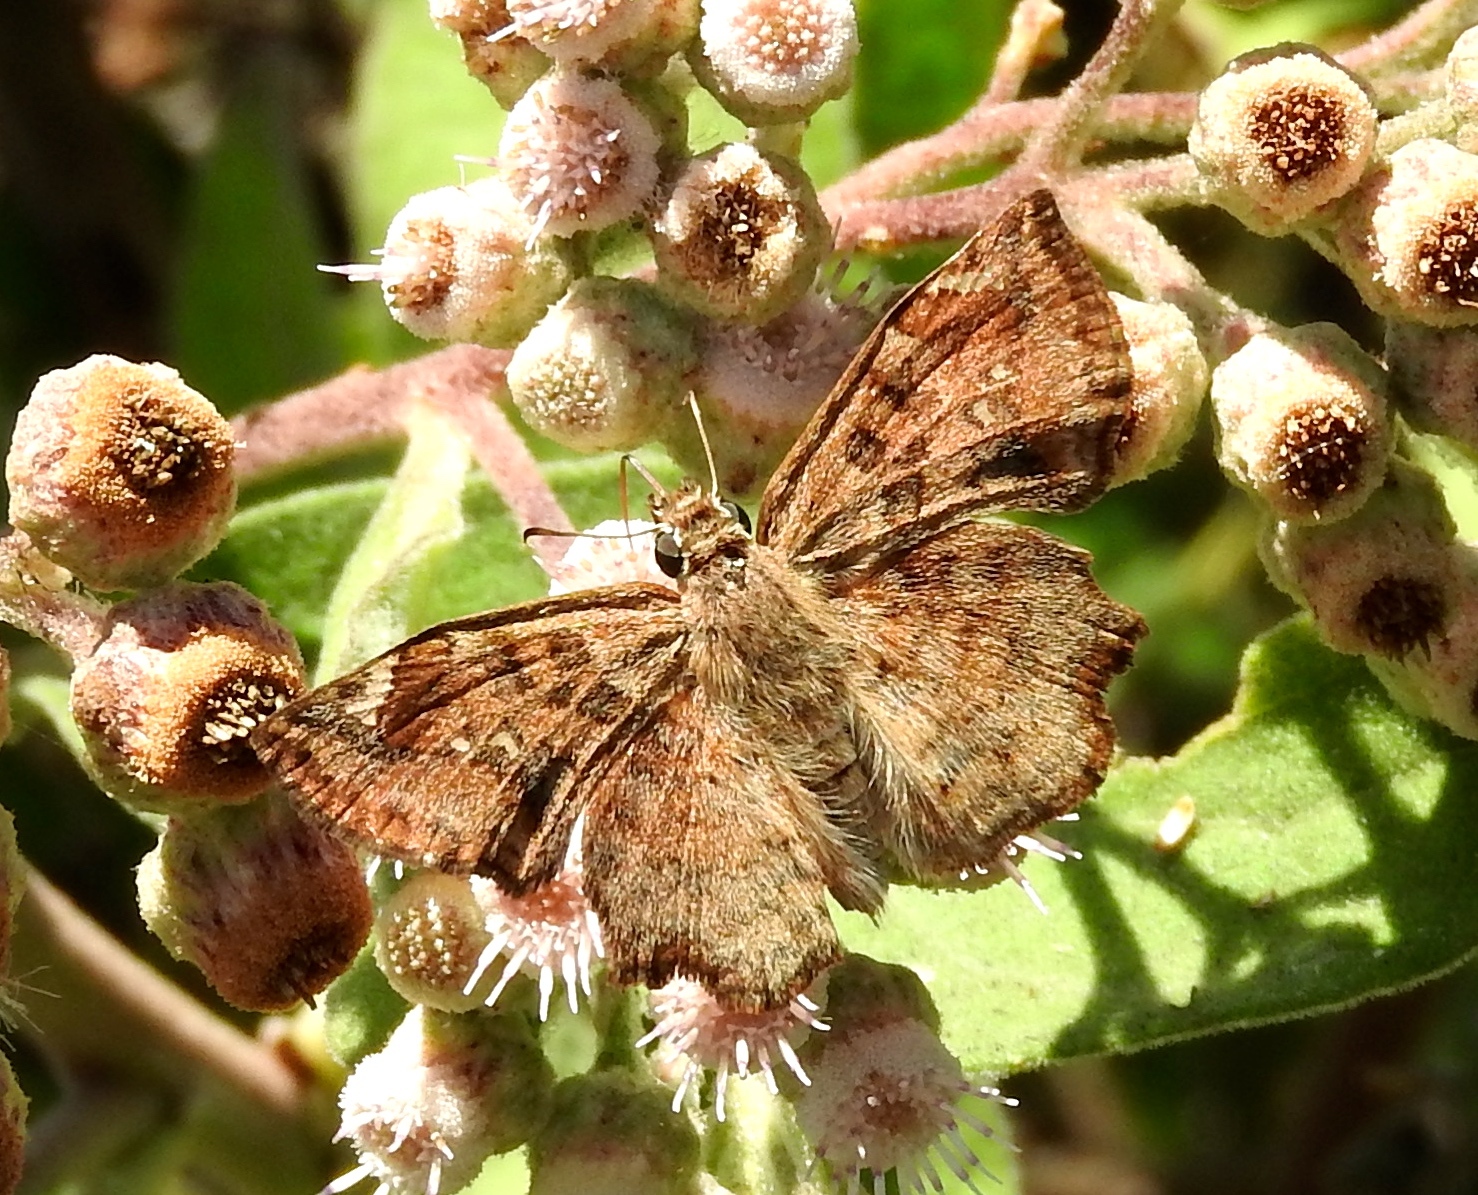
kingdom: Animalia
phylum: Arthropoda
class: Insecta
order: Lepidoptera
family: Hesperiidae
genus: Antigonus
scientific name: Antigonus erosus
